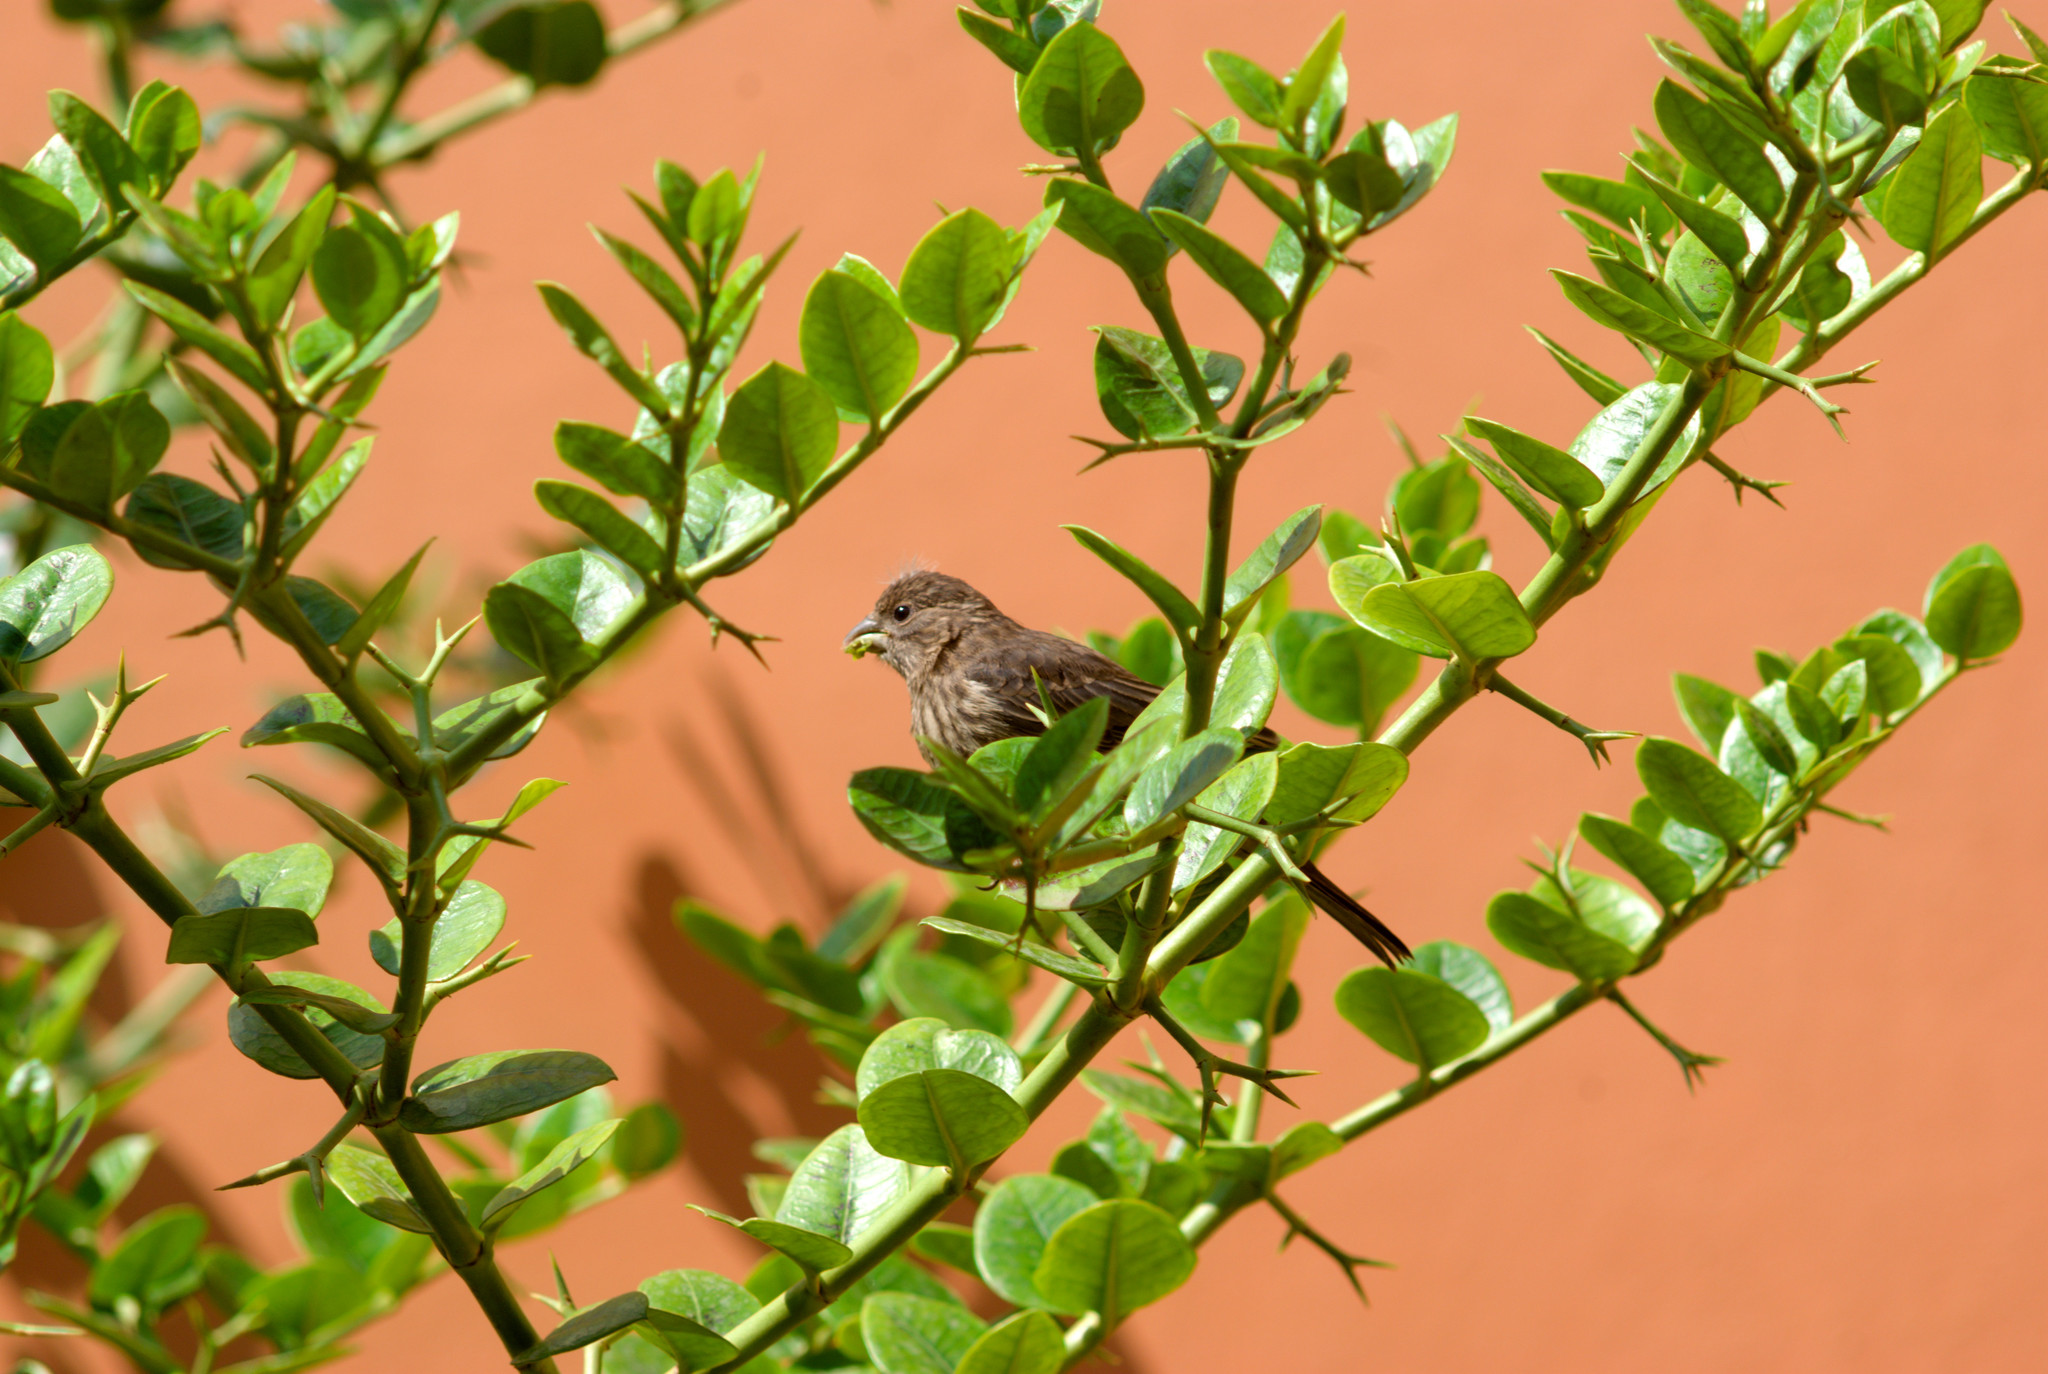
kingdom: Animalia
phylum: Chordata
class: Aves
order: Passeriformes
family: Fringillidae
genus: Haemorhous
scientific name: Haemorhous mexicanus
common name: House finch
